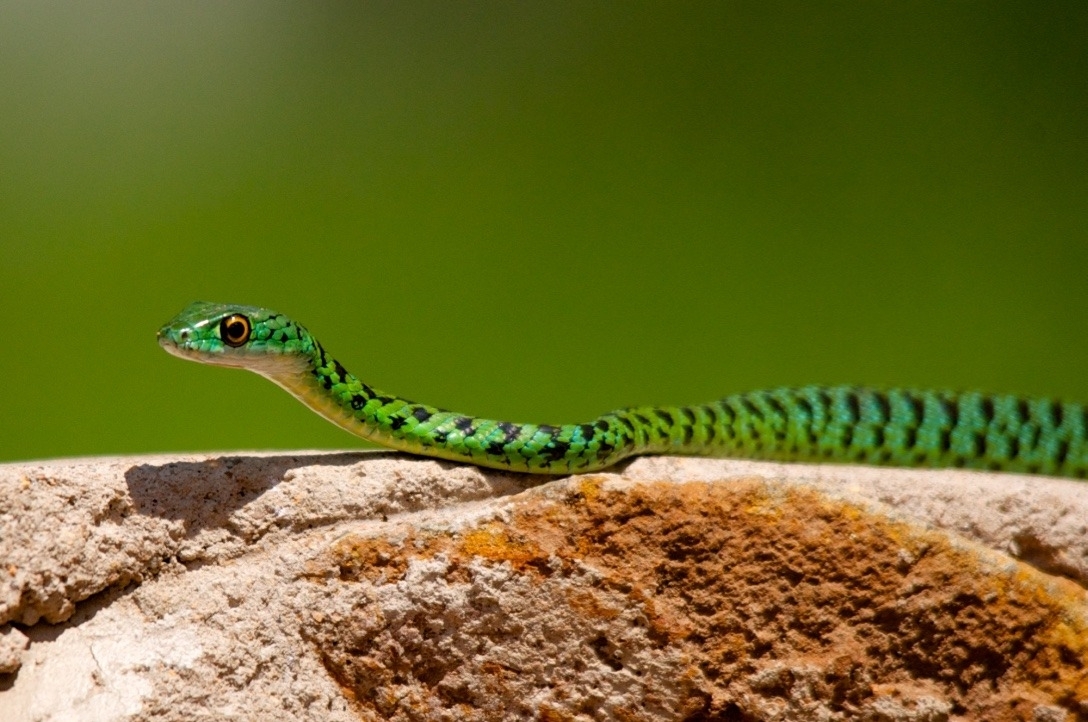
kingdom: Animalia
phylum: Chordata
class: Squamata
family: Colubridae
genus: Philothamnus
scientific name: Philothamnus semivariegatus
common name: Spotted bush snake
